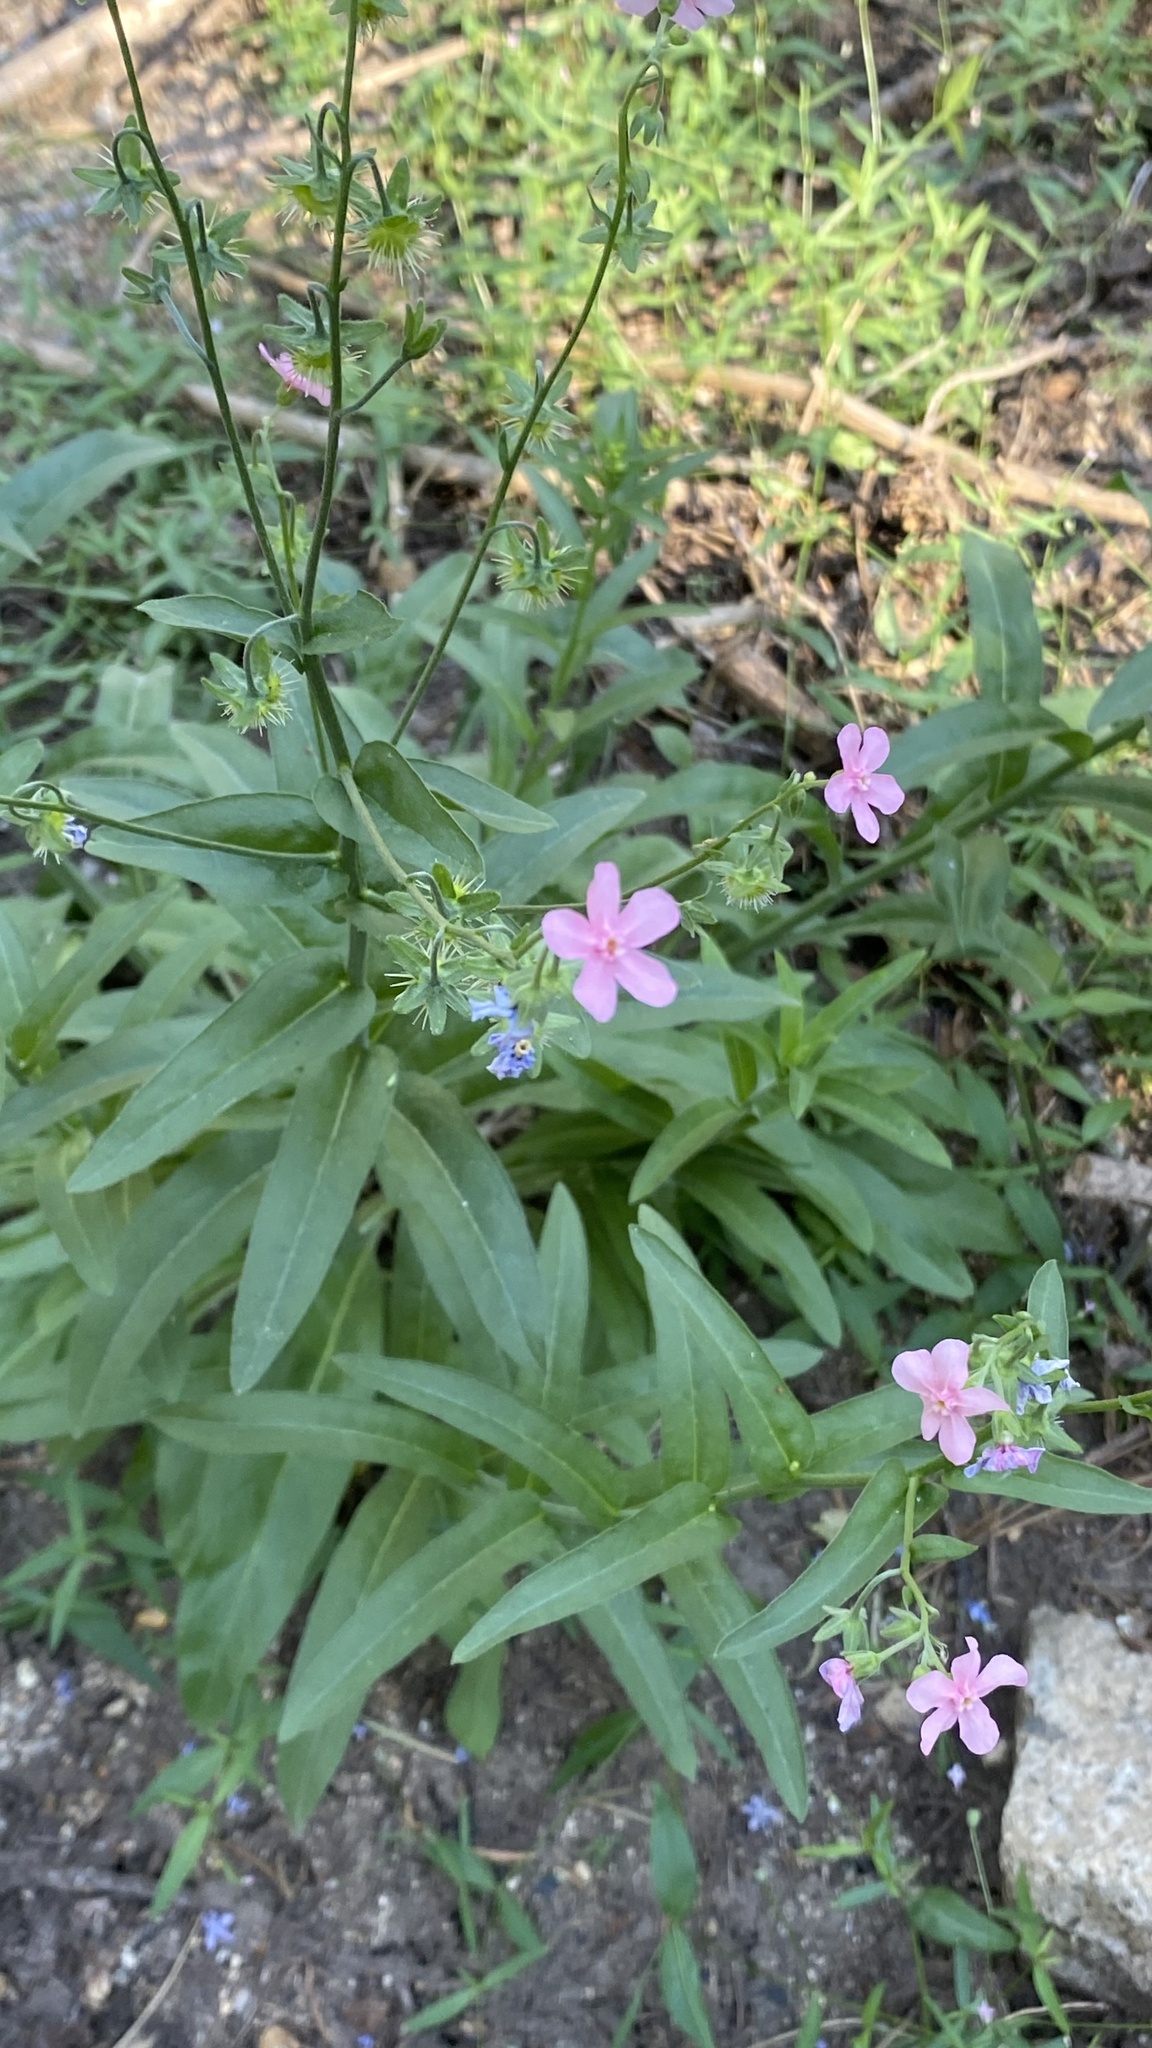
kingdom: Plantae
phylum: Tracheophyta
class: Magnoliopsida
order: Boraginales
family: Boraginaceae
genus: Hackelia
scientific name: Hackelia mundula
